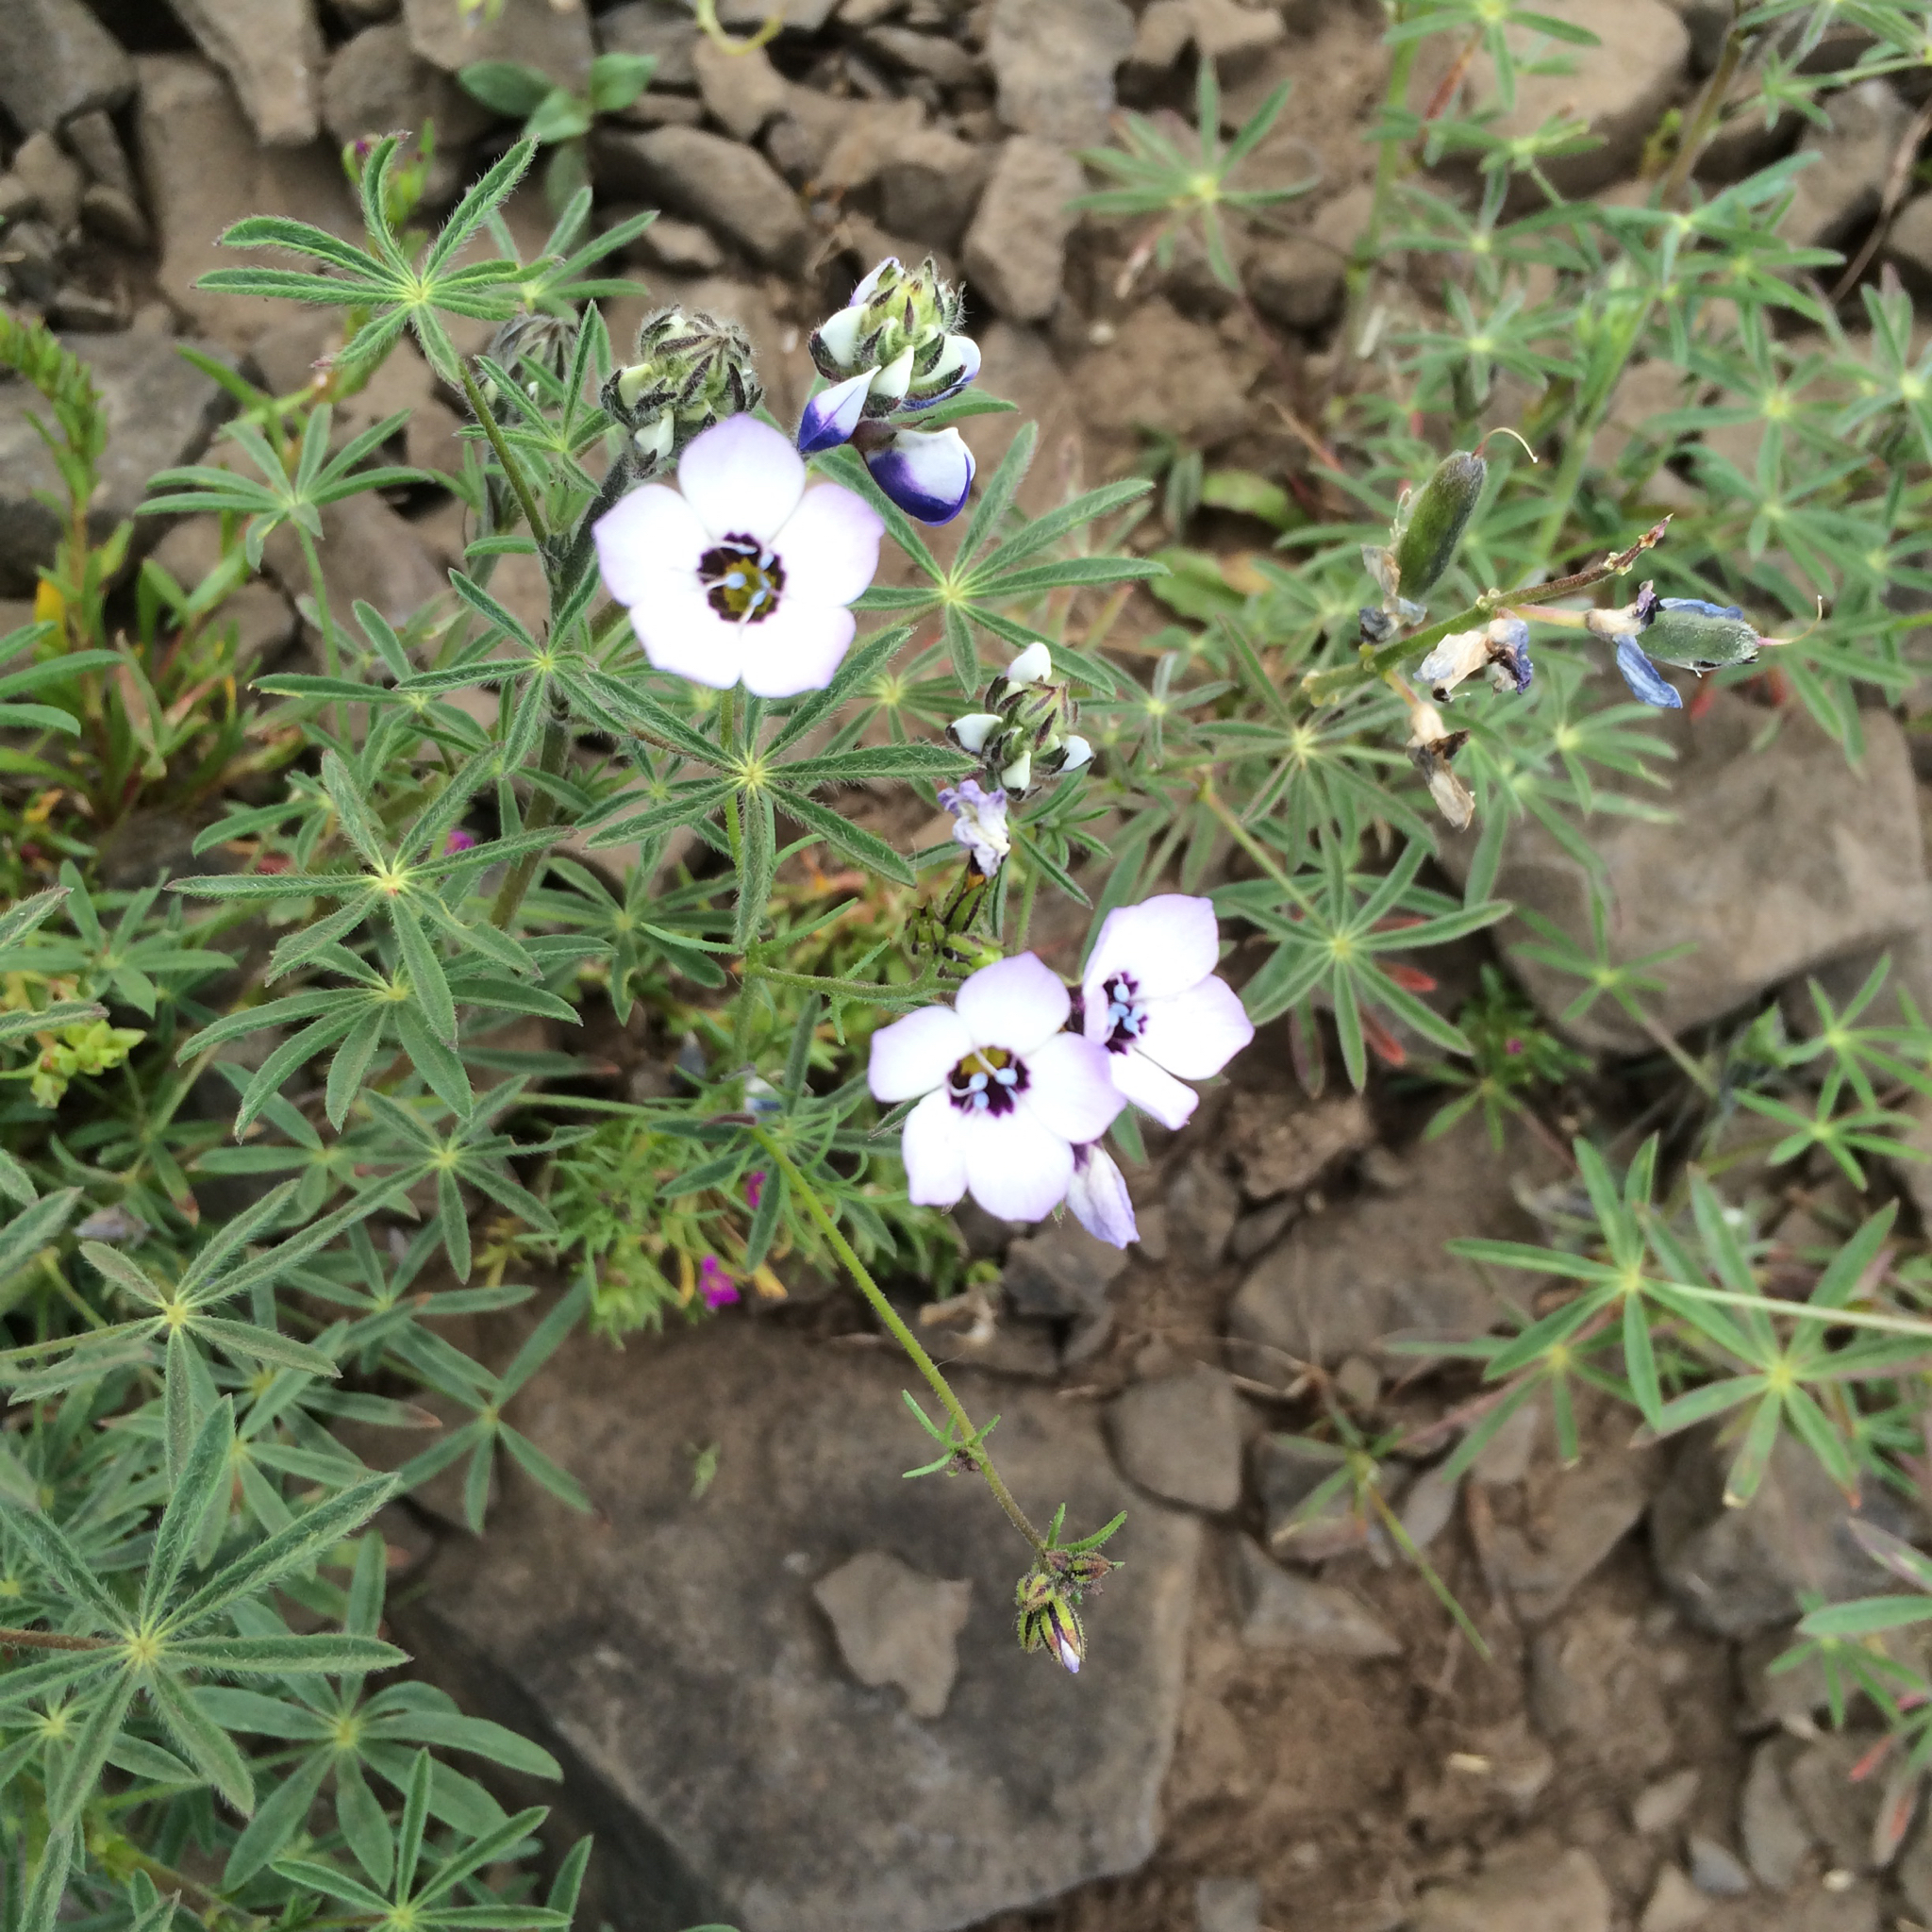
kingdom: Plantae
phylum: Tracheophyta
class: Magnoliopsida
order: Ericales
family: Polemoniaceae
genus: Gilia
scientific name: Gilia tricolor
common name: Bird's-eyes
